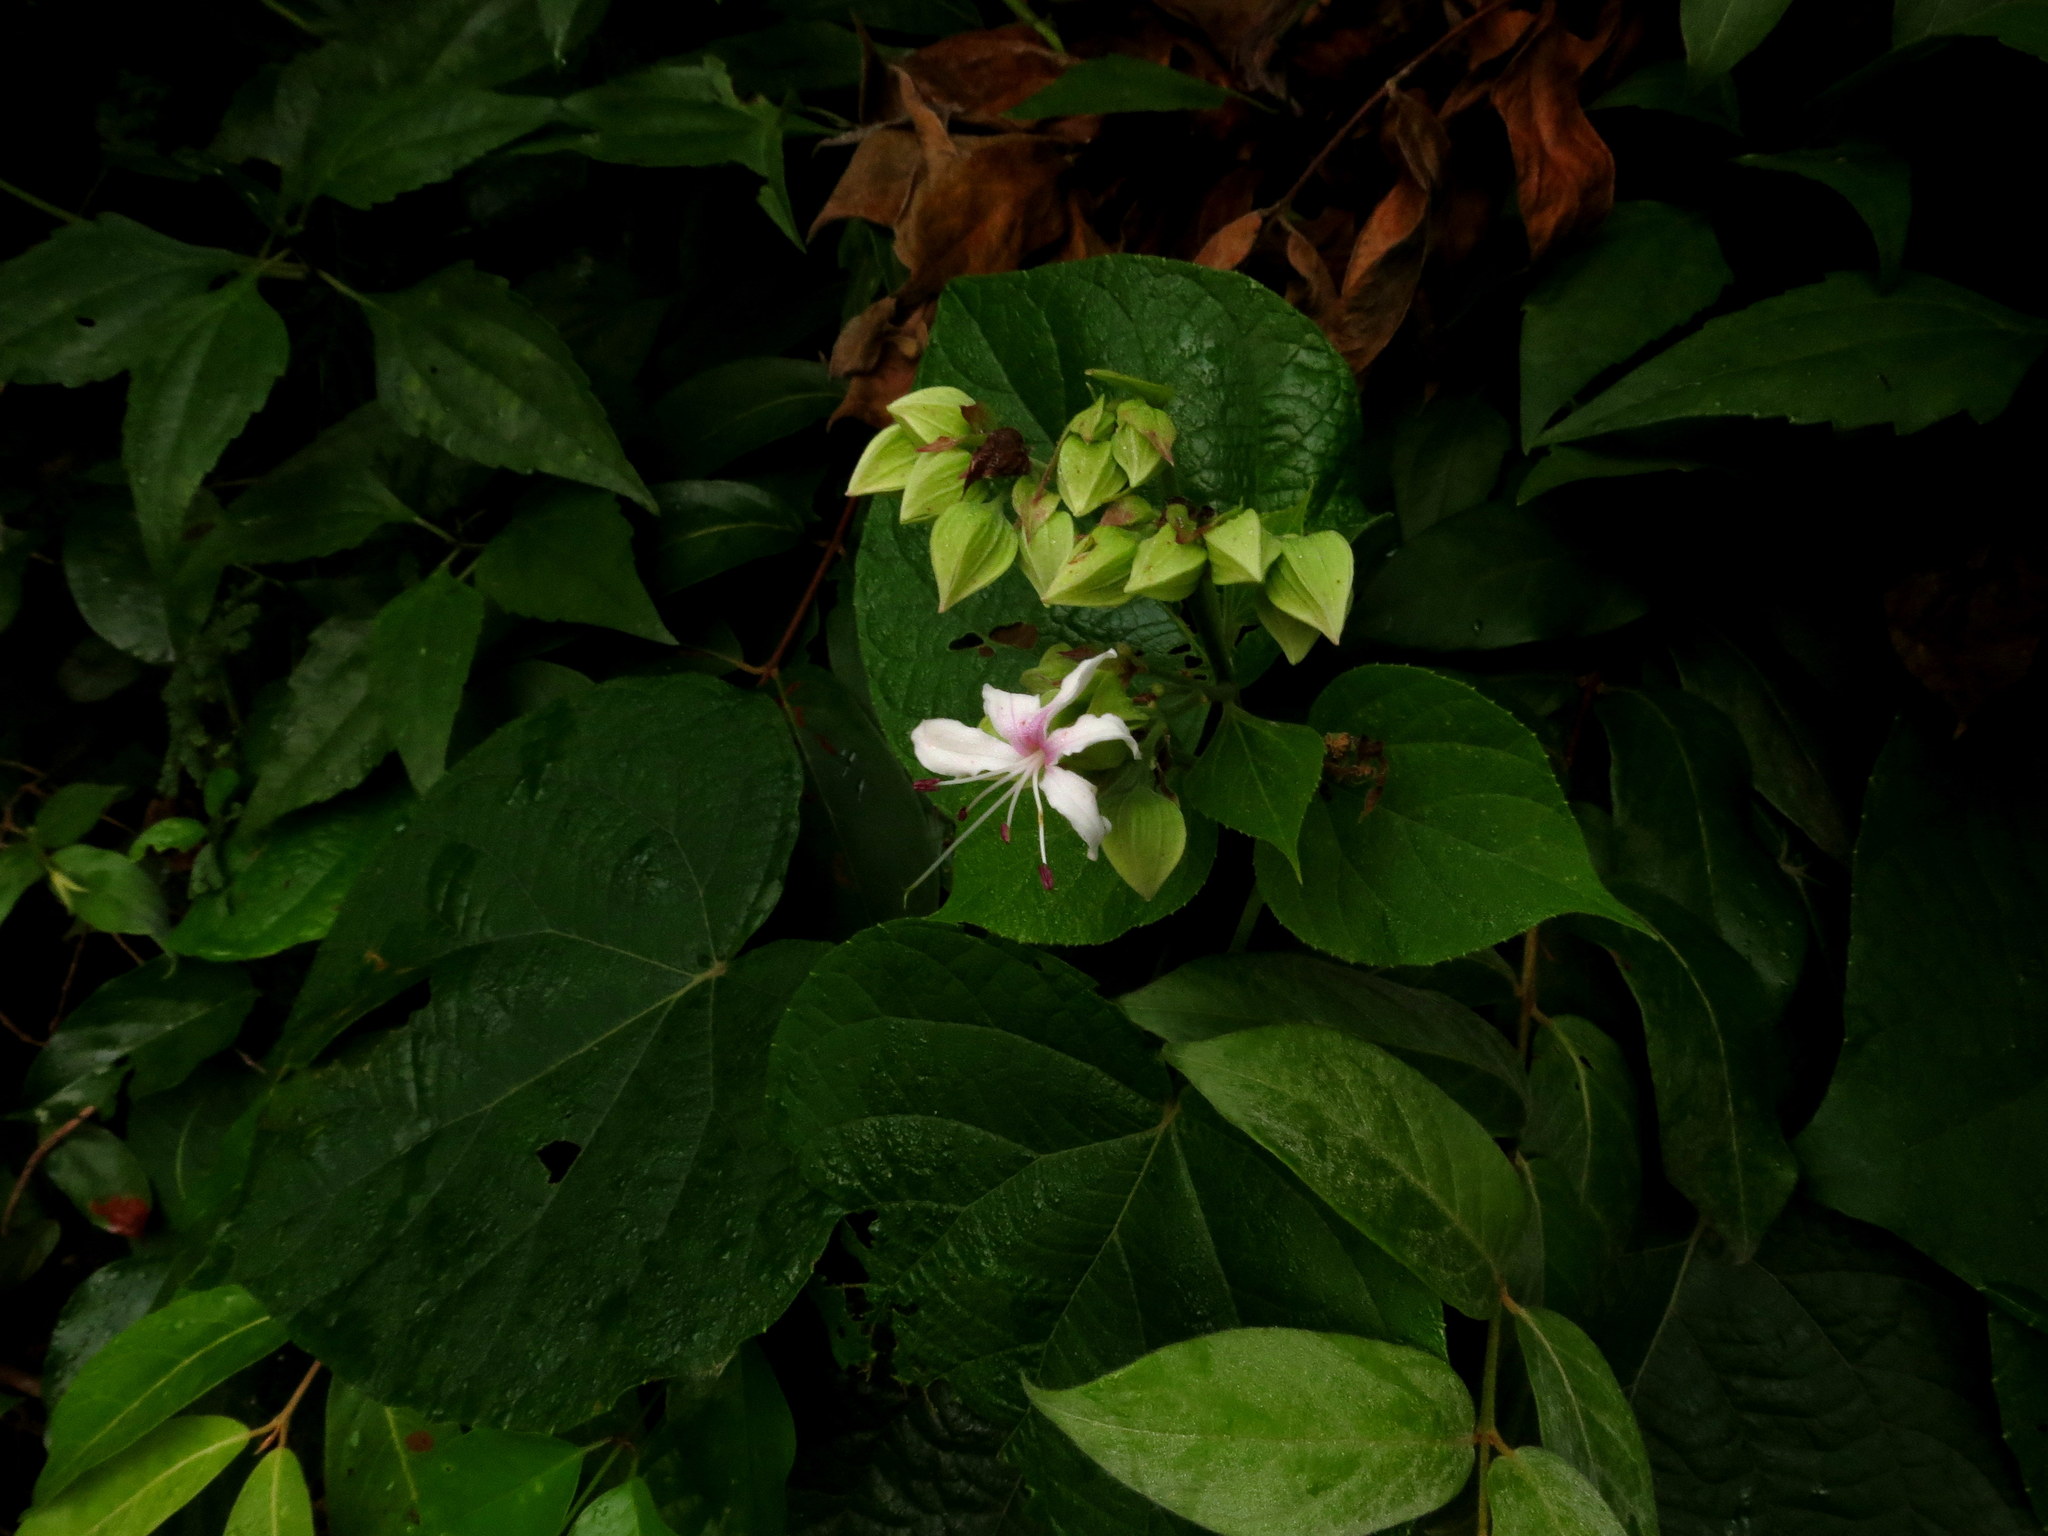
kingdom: Plantae
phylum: Tracheophyta
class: Magnoliopsida
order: Lamiales
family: Lamiaceae
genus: Clerodendrum
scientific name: Clerodendrum infortunatum
